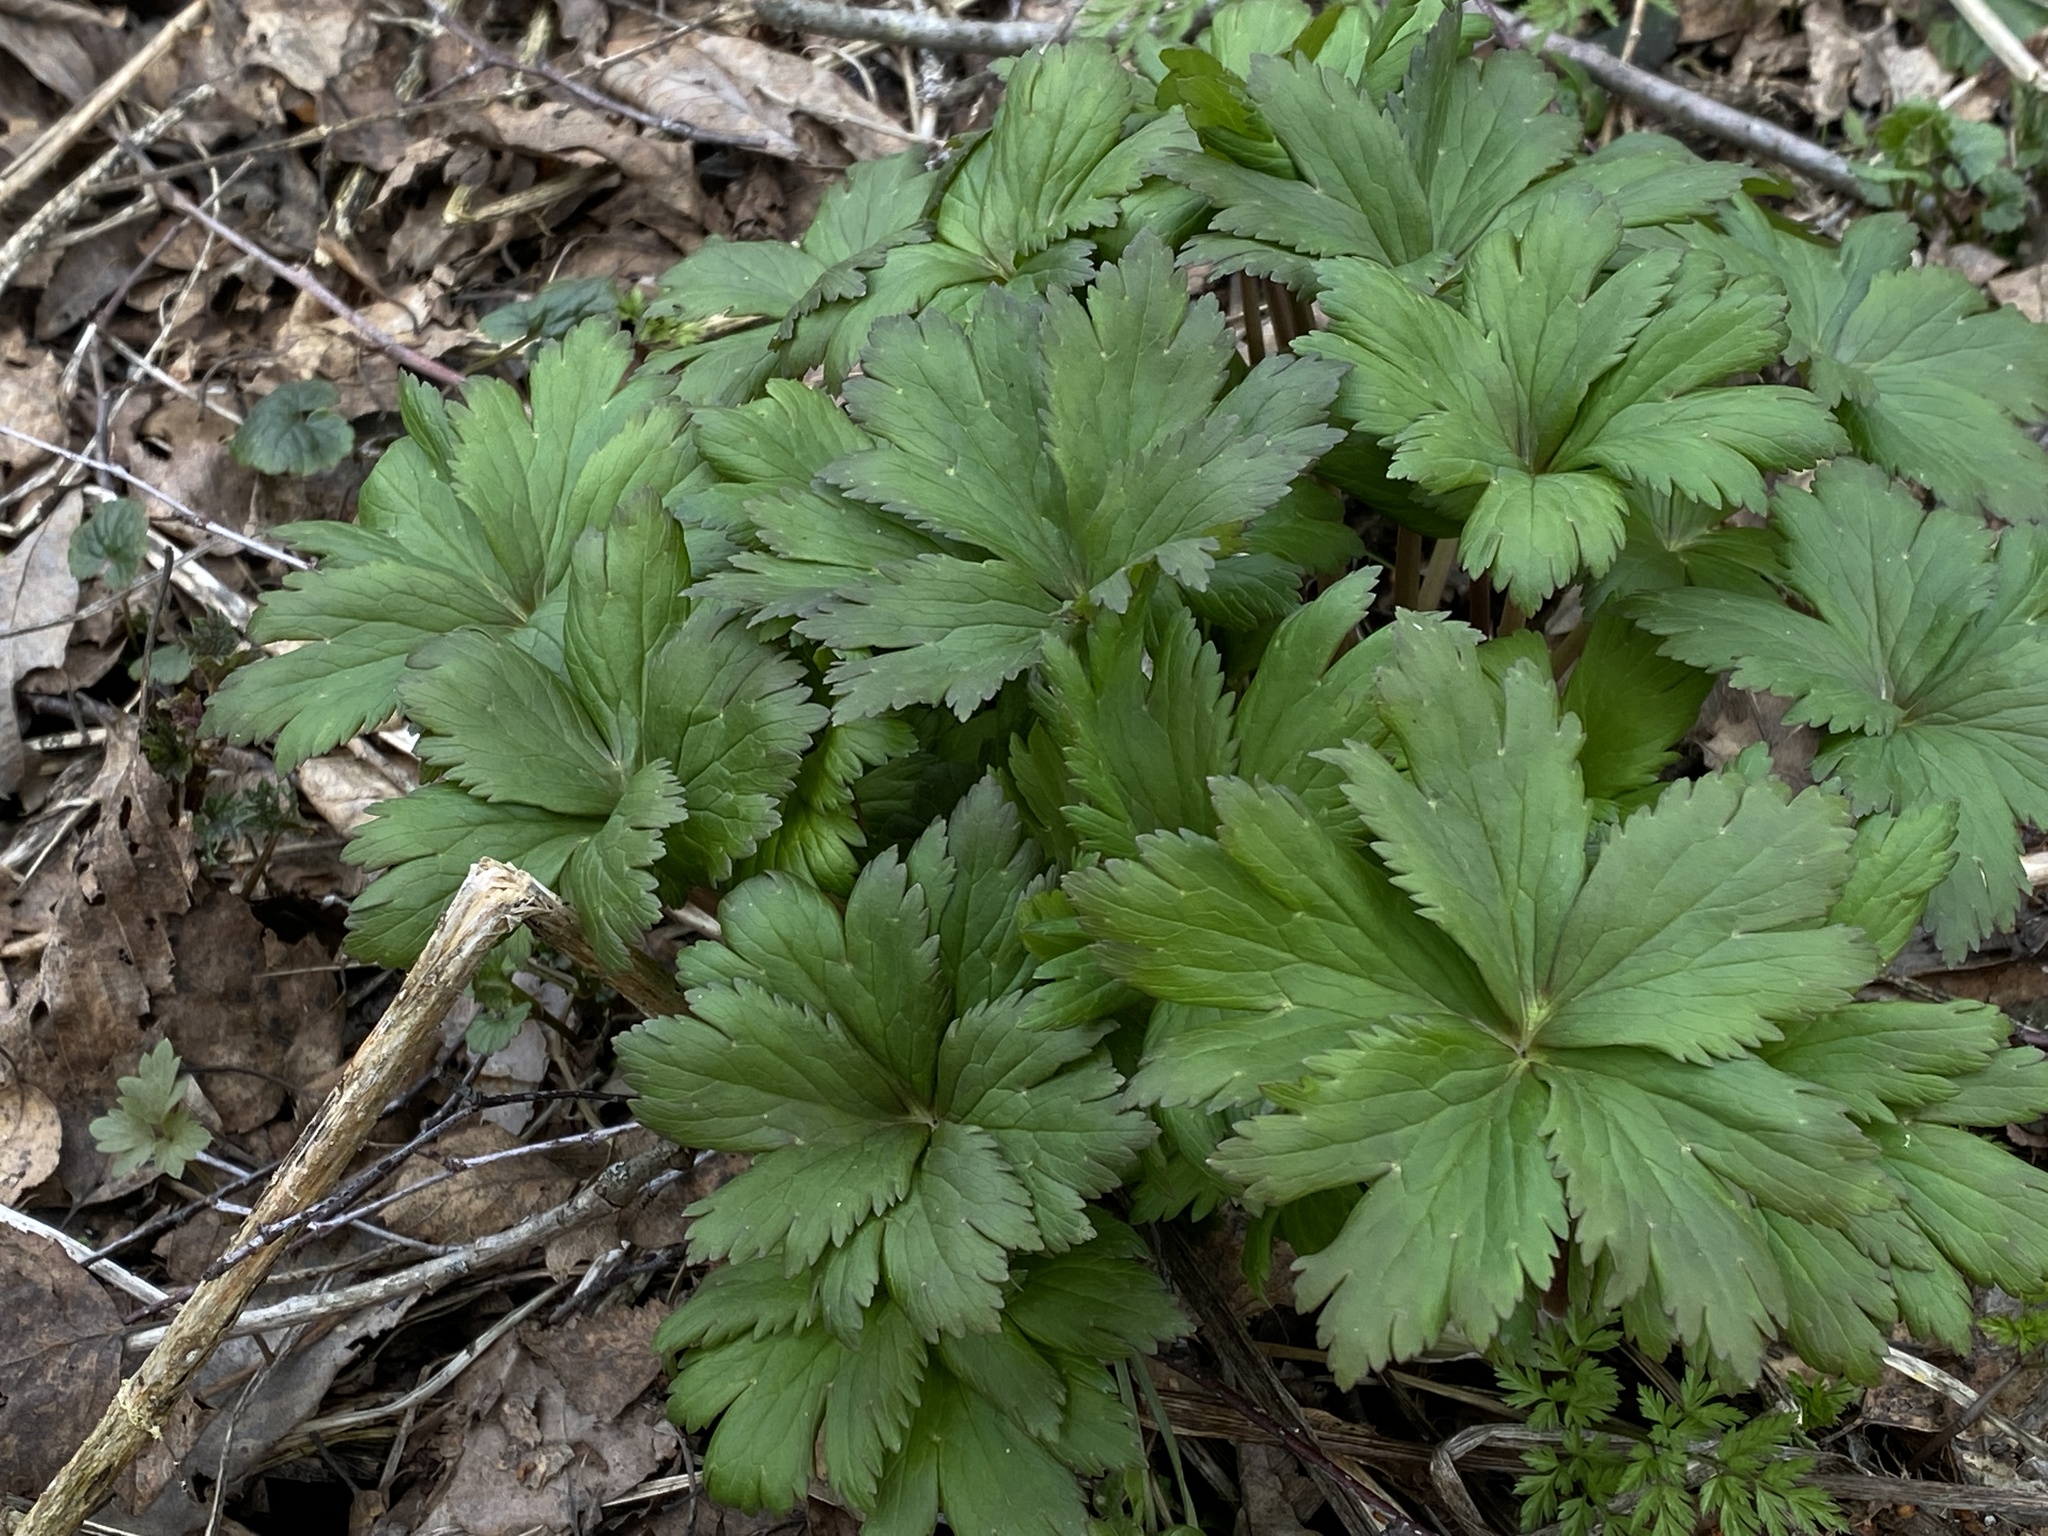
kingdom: Plantae
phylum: Tracheophyta
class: Magnoliopsida
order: Ranunculales
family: Ranunculaceae
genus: Trollius
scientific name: Trollius europaeus
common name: European globeflower
